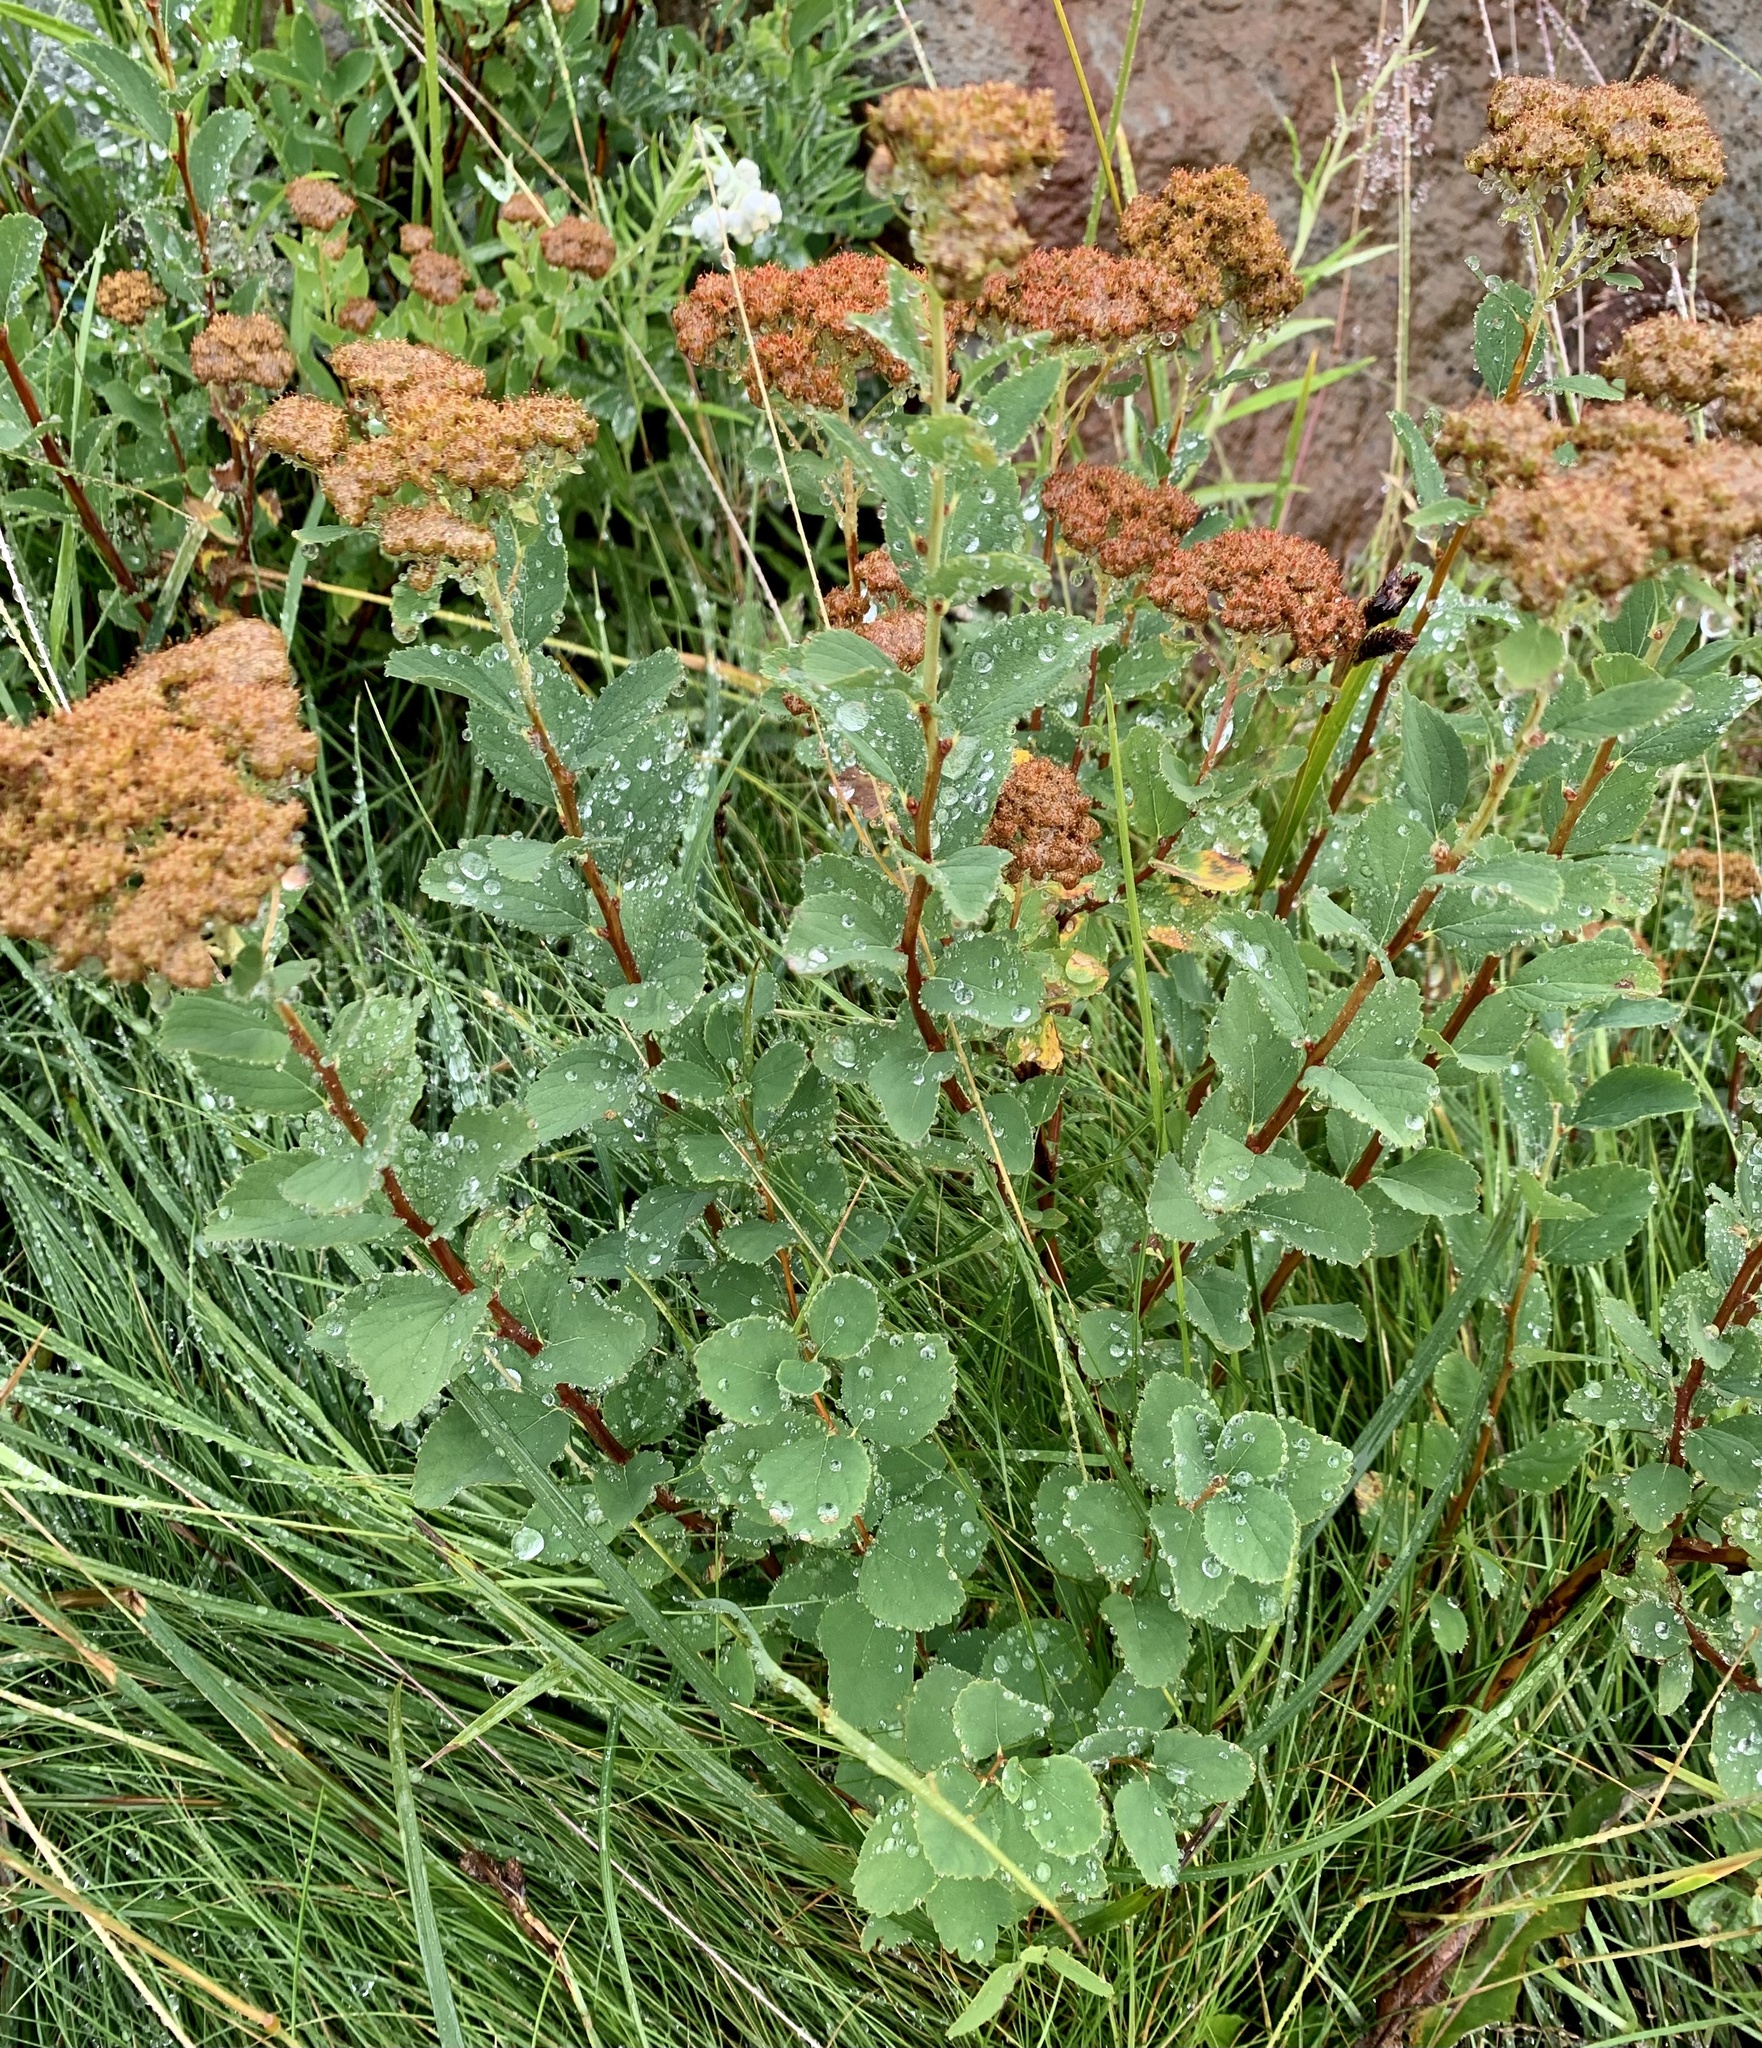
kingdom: Plantae
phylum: Tracheophyta
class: Magnoliopsida
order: Rosales
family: Rosaceae
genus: Spiraea
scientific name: Spiraea splendens
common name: Subalpine meadowsweet
